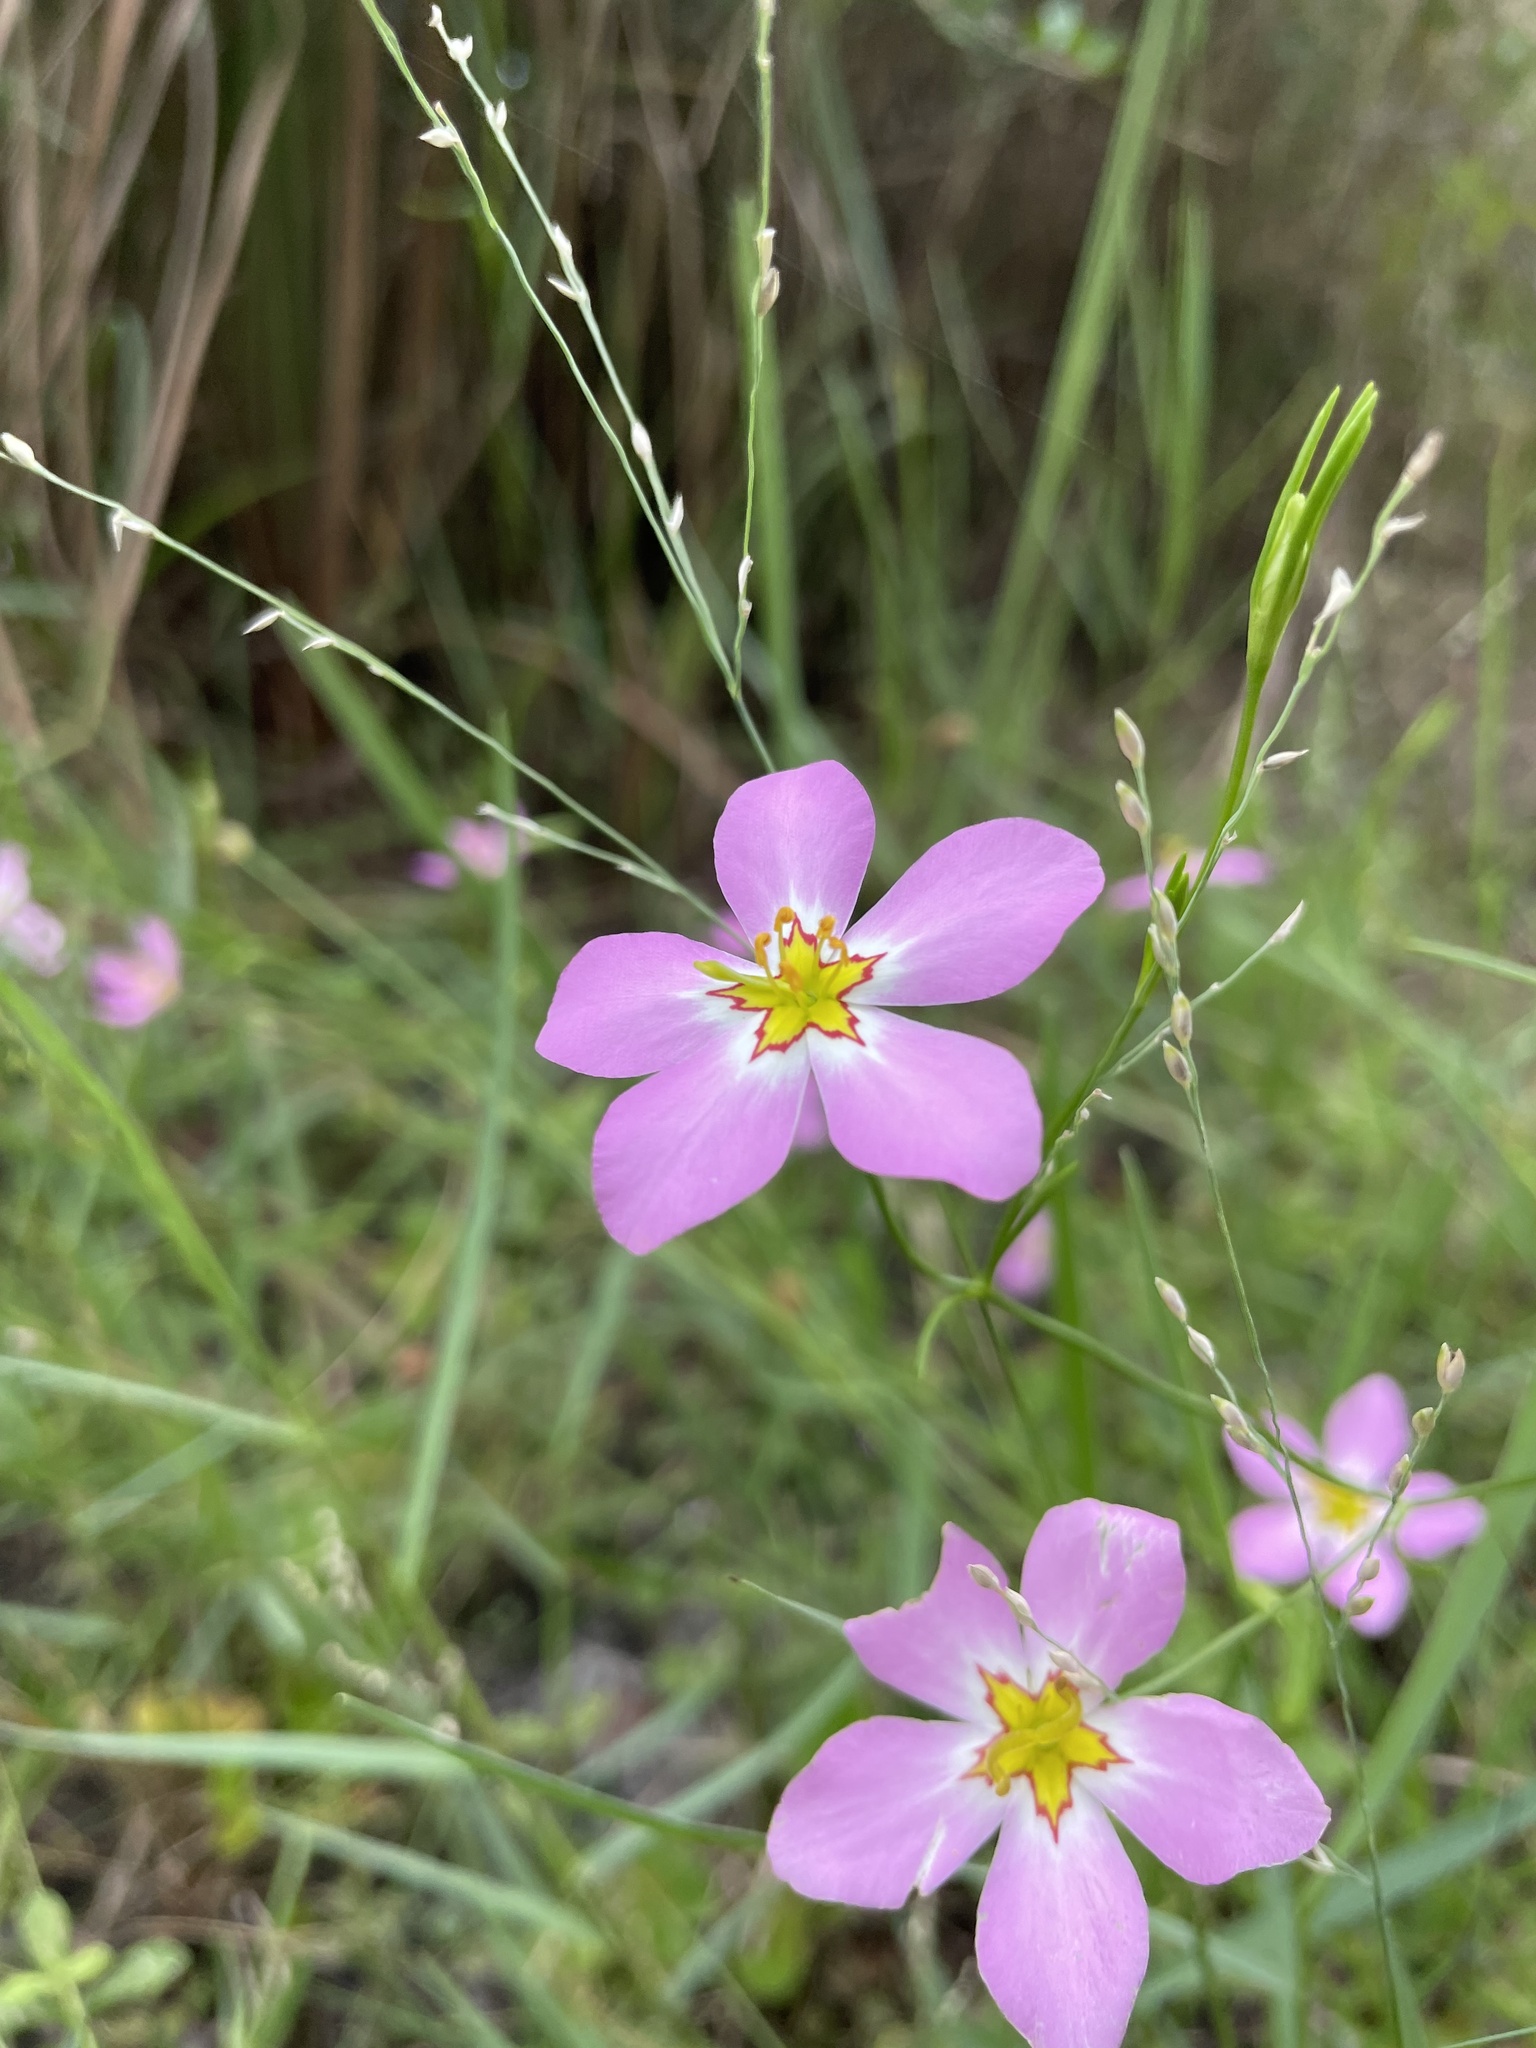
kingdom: Plantae
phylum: Tracheophyta
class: Magnoliopsida
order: Gentianales
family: Gentianaceae
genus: Sabatia
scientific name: Sabatia stellaris
